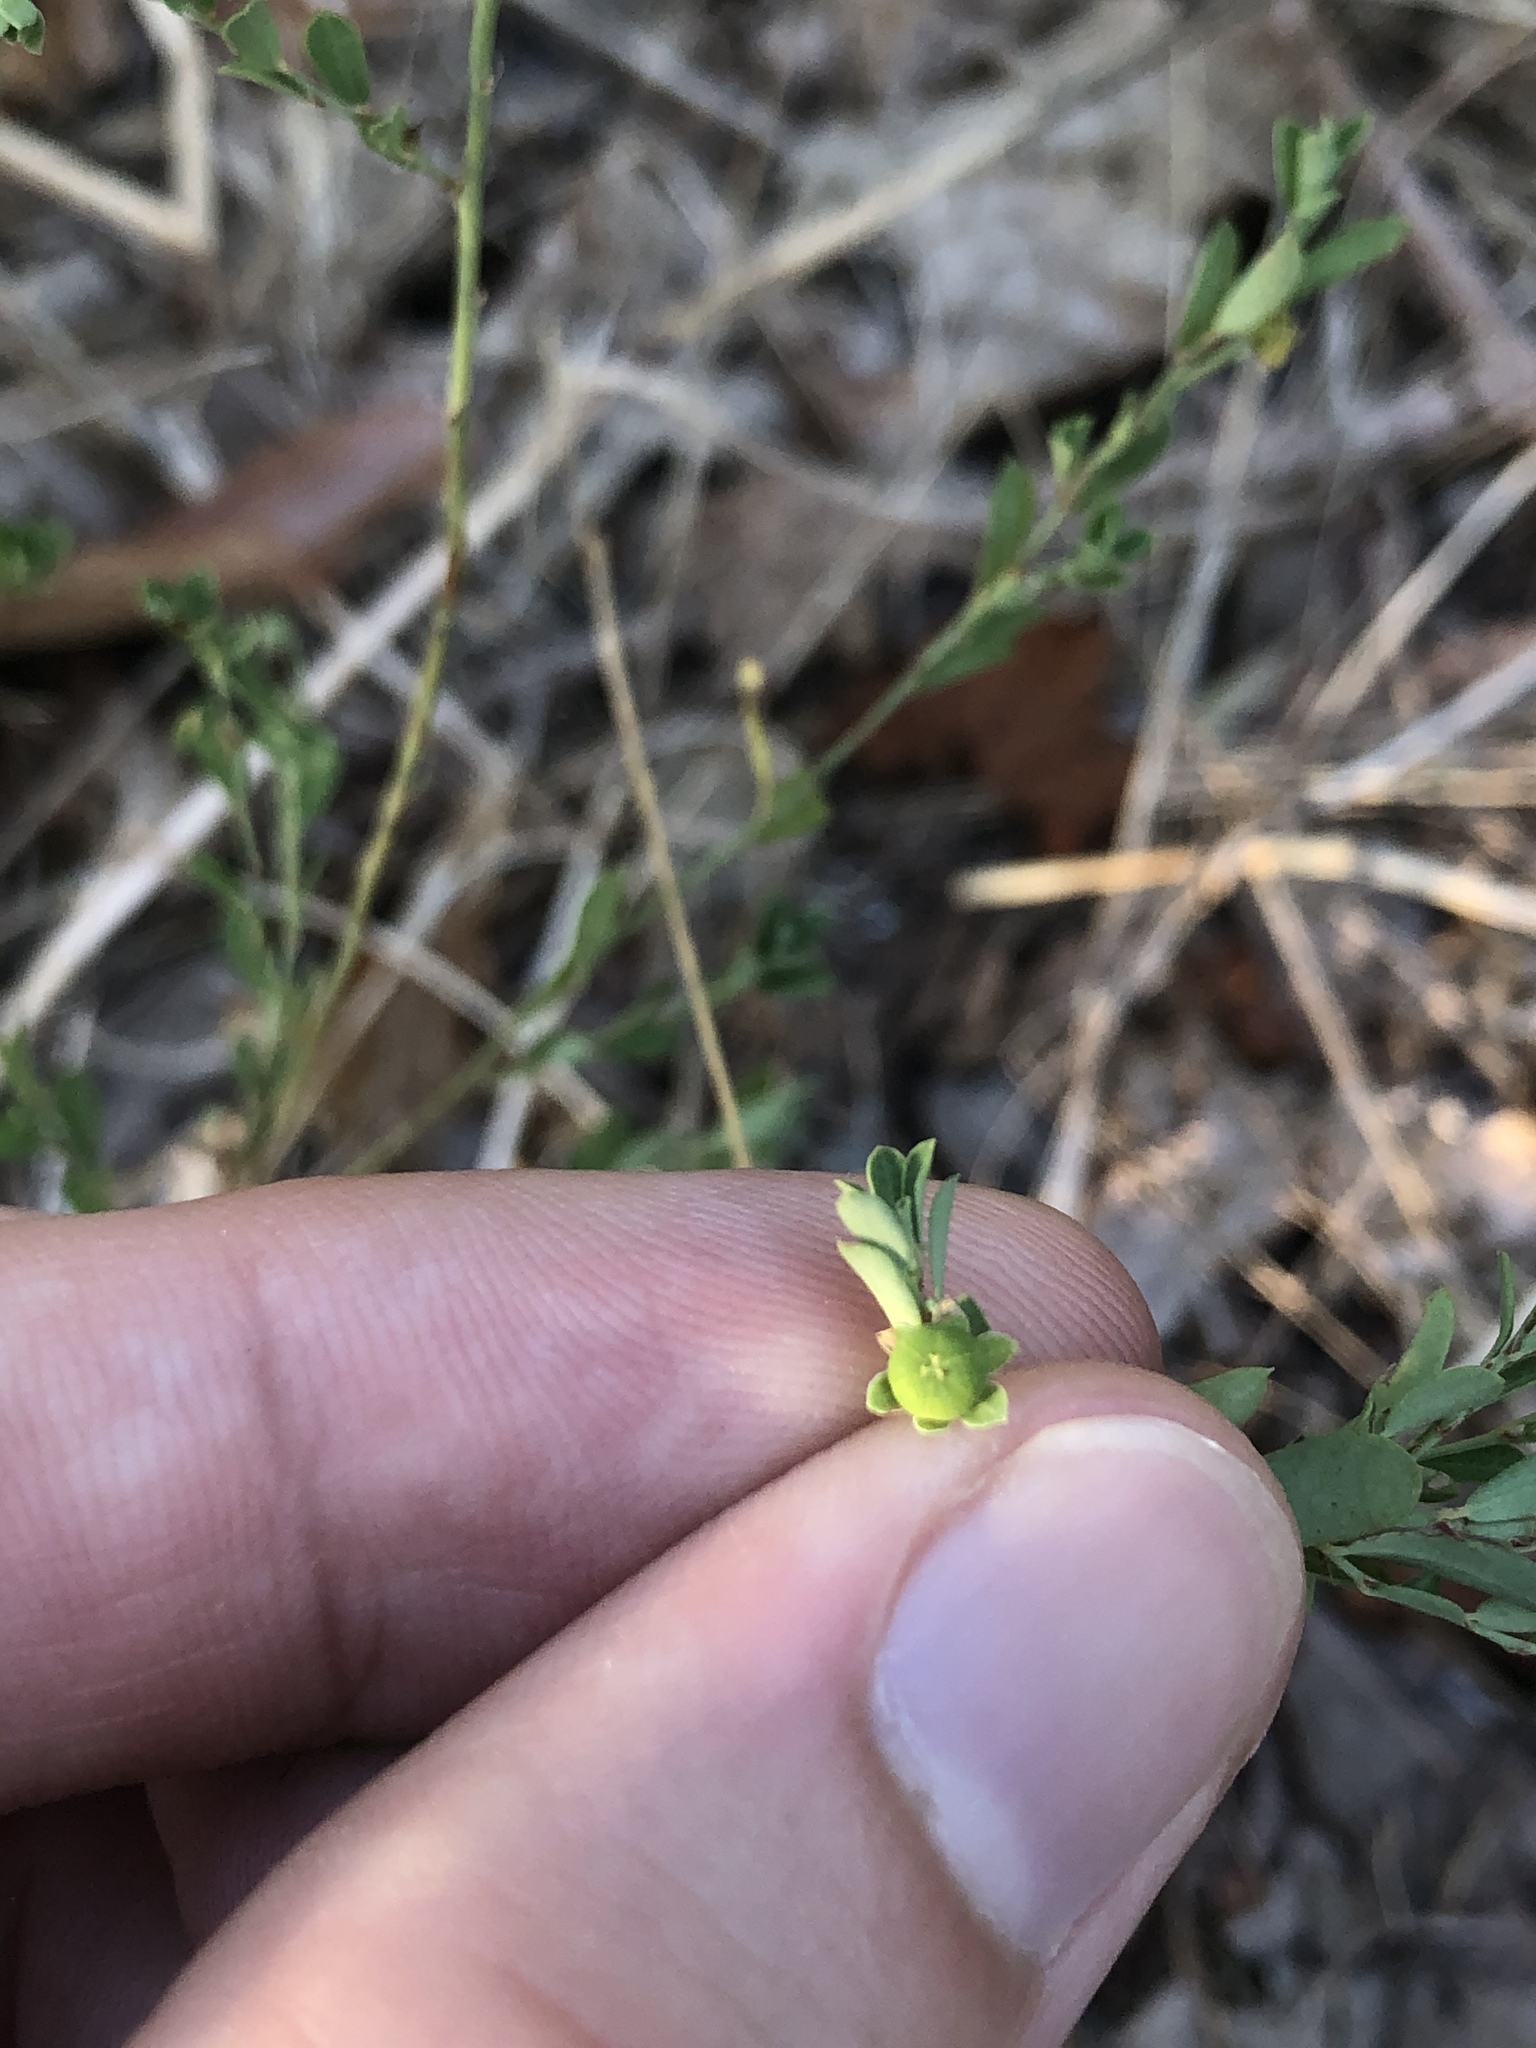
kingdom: Plantae
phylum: Tracheophyta
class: Magnoliopsida
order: Malpighiales
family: Phyllanthaceae
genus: Phyllanthus
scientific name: Phyllanthus polygonoides
